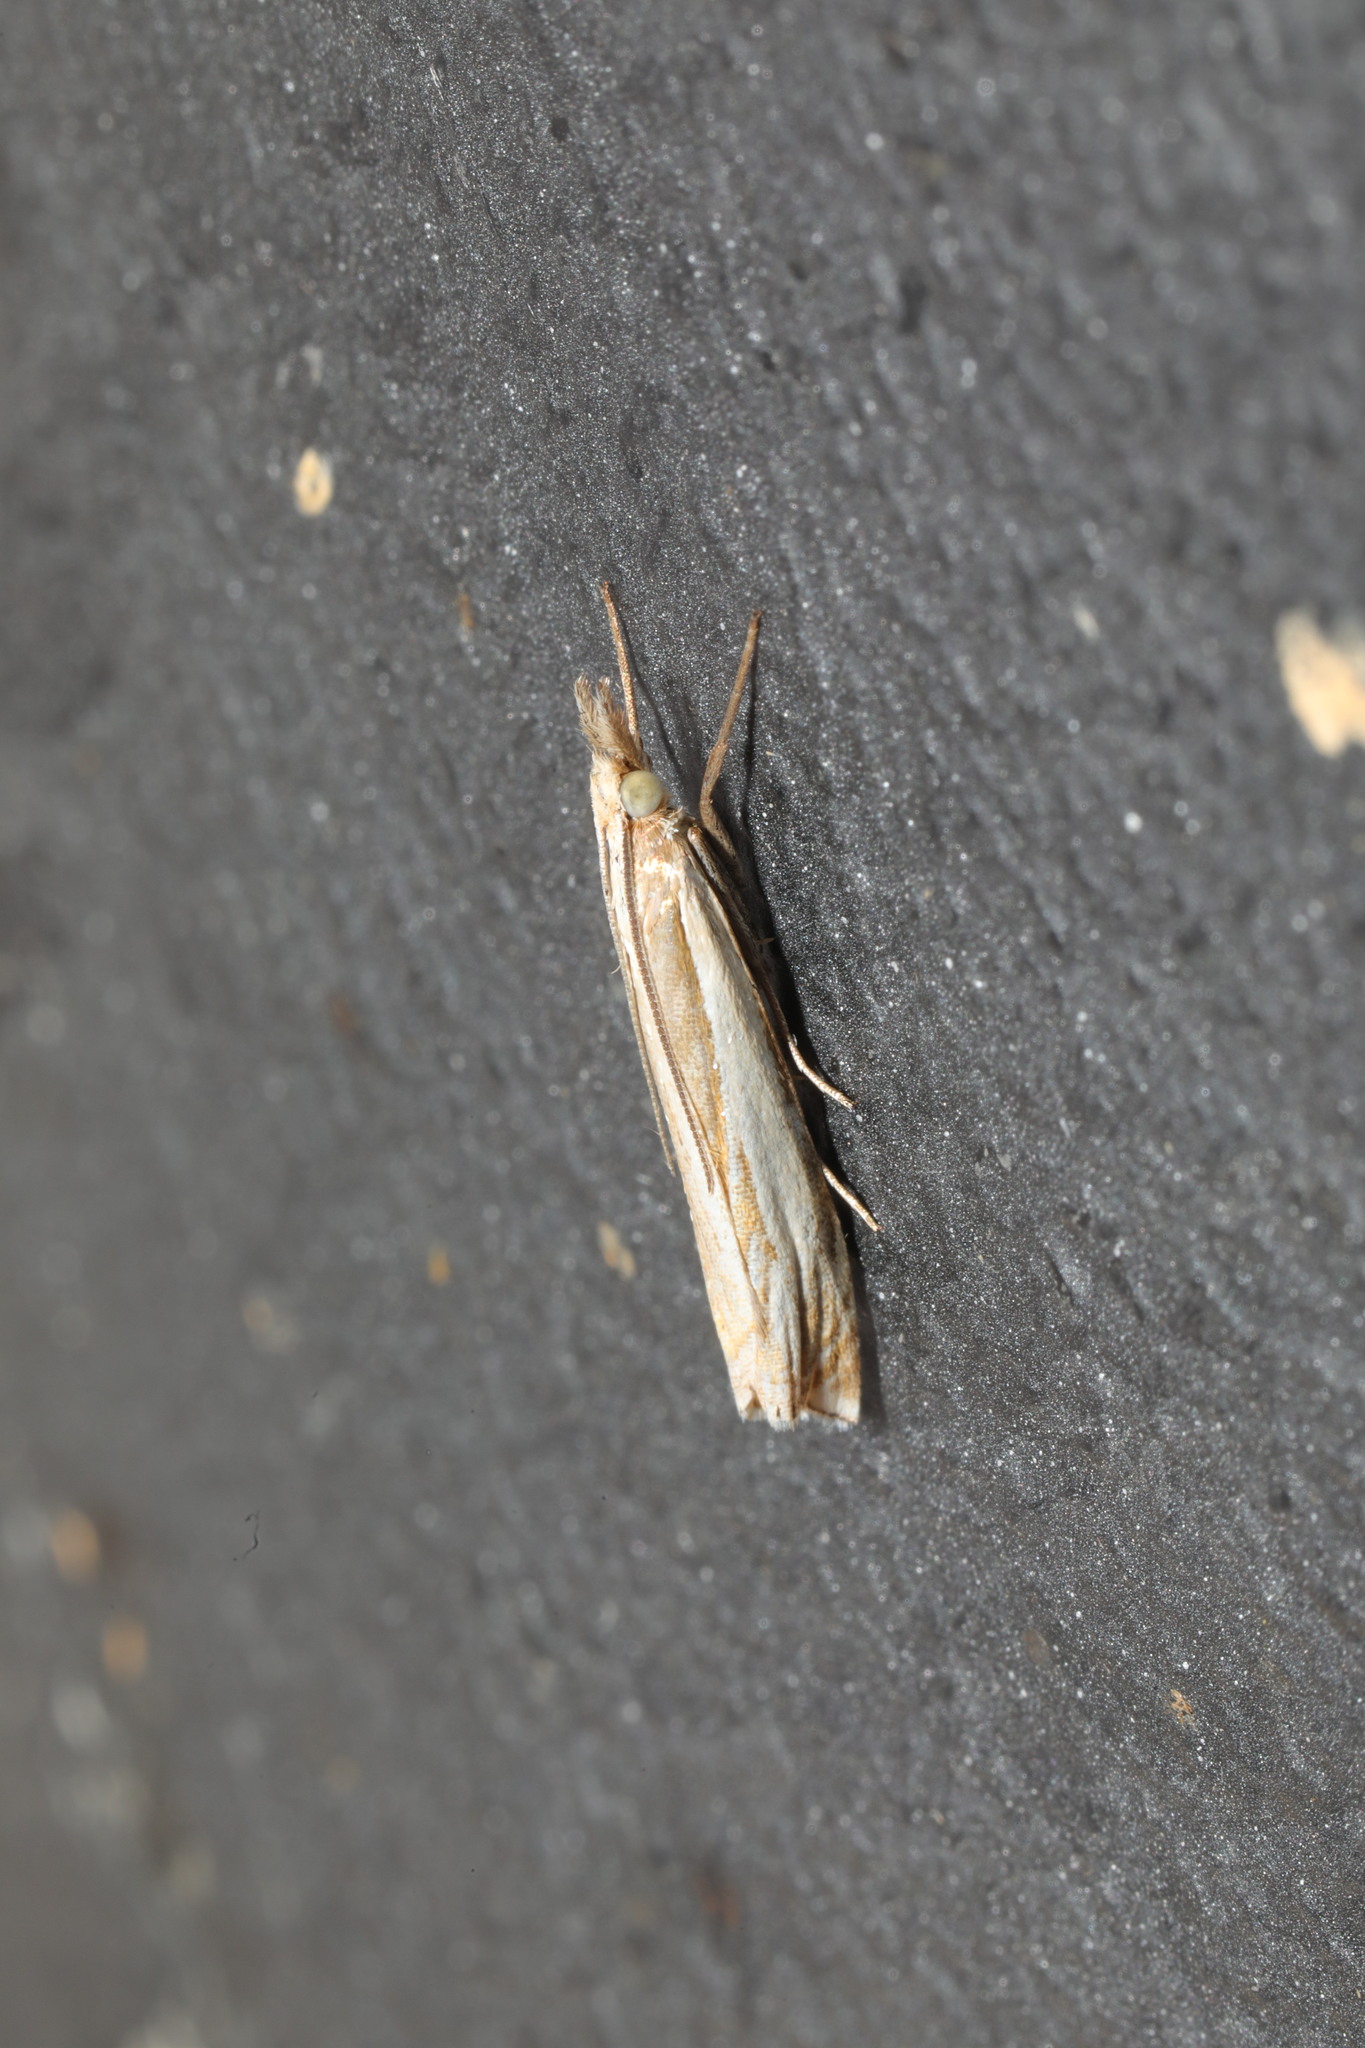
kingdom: Animalia
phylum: Arthropoda
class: Insecta
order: Lepidoptera
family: Crambidae
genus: Crambus
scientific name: Crambus pascuella
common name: Inlaid grass-veneer
